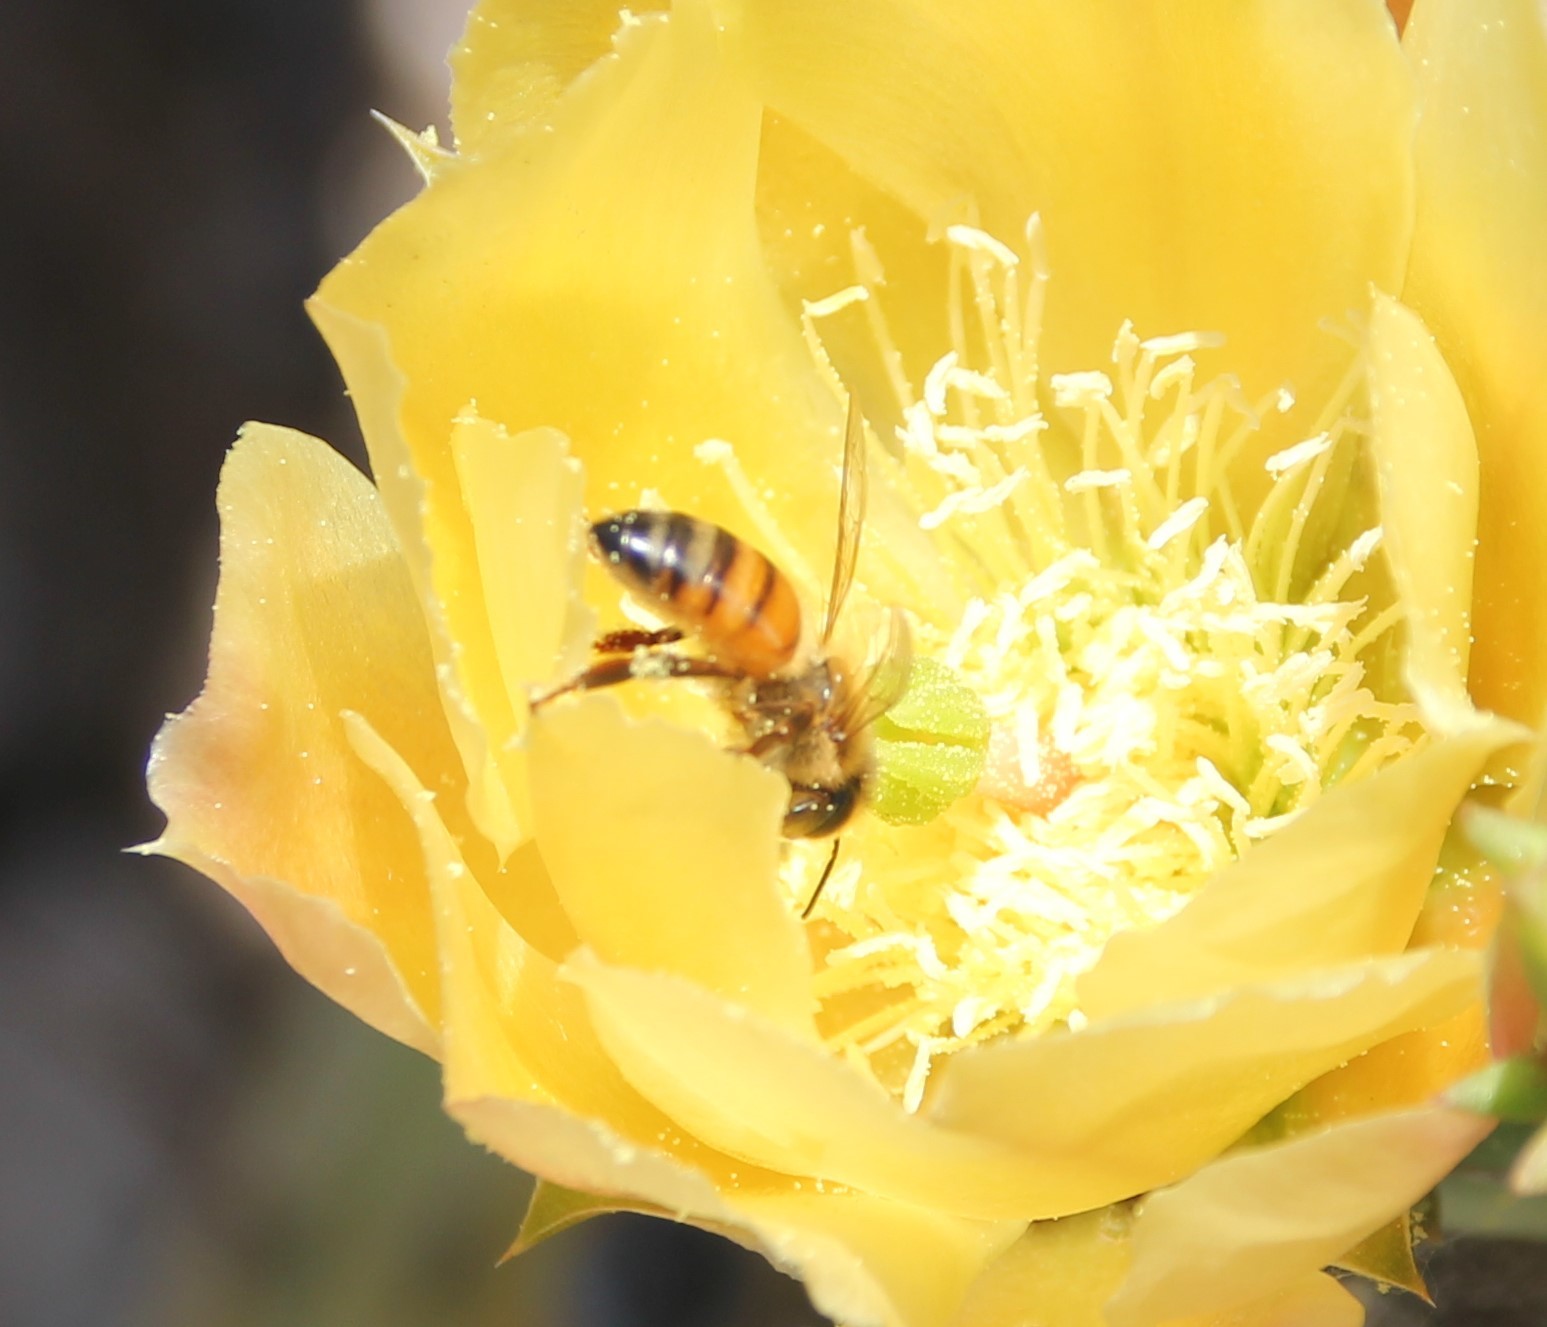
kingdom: Animalia
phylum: Arthropoda
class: Insecta
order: Hymenoptera
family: Apidae
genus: Apis
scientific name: Apis mellifera
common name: Honey bee
